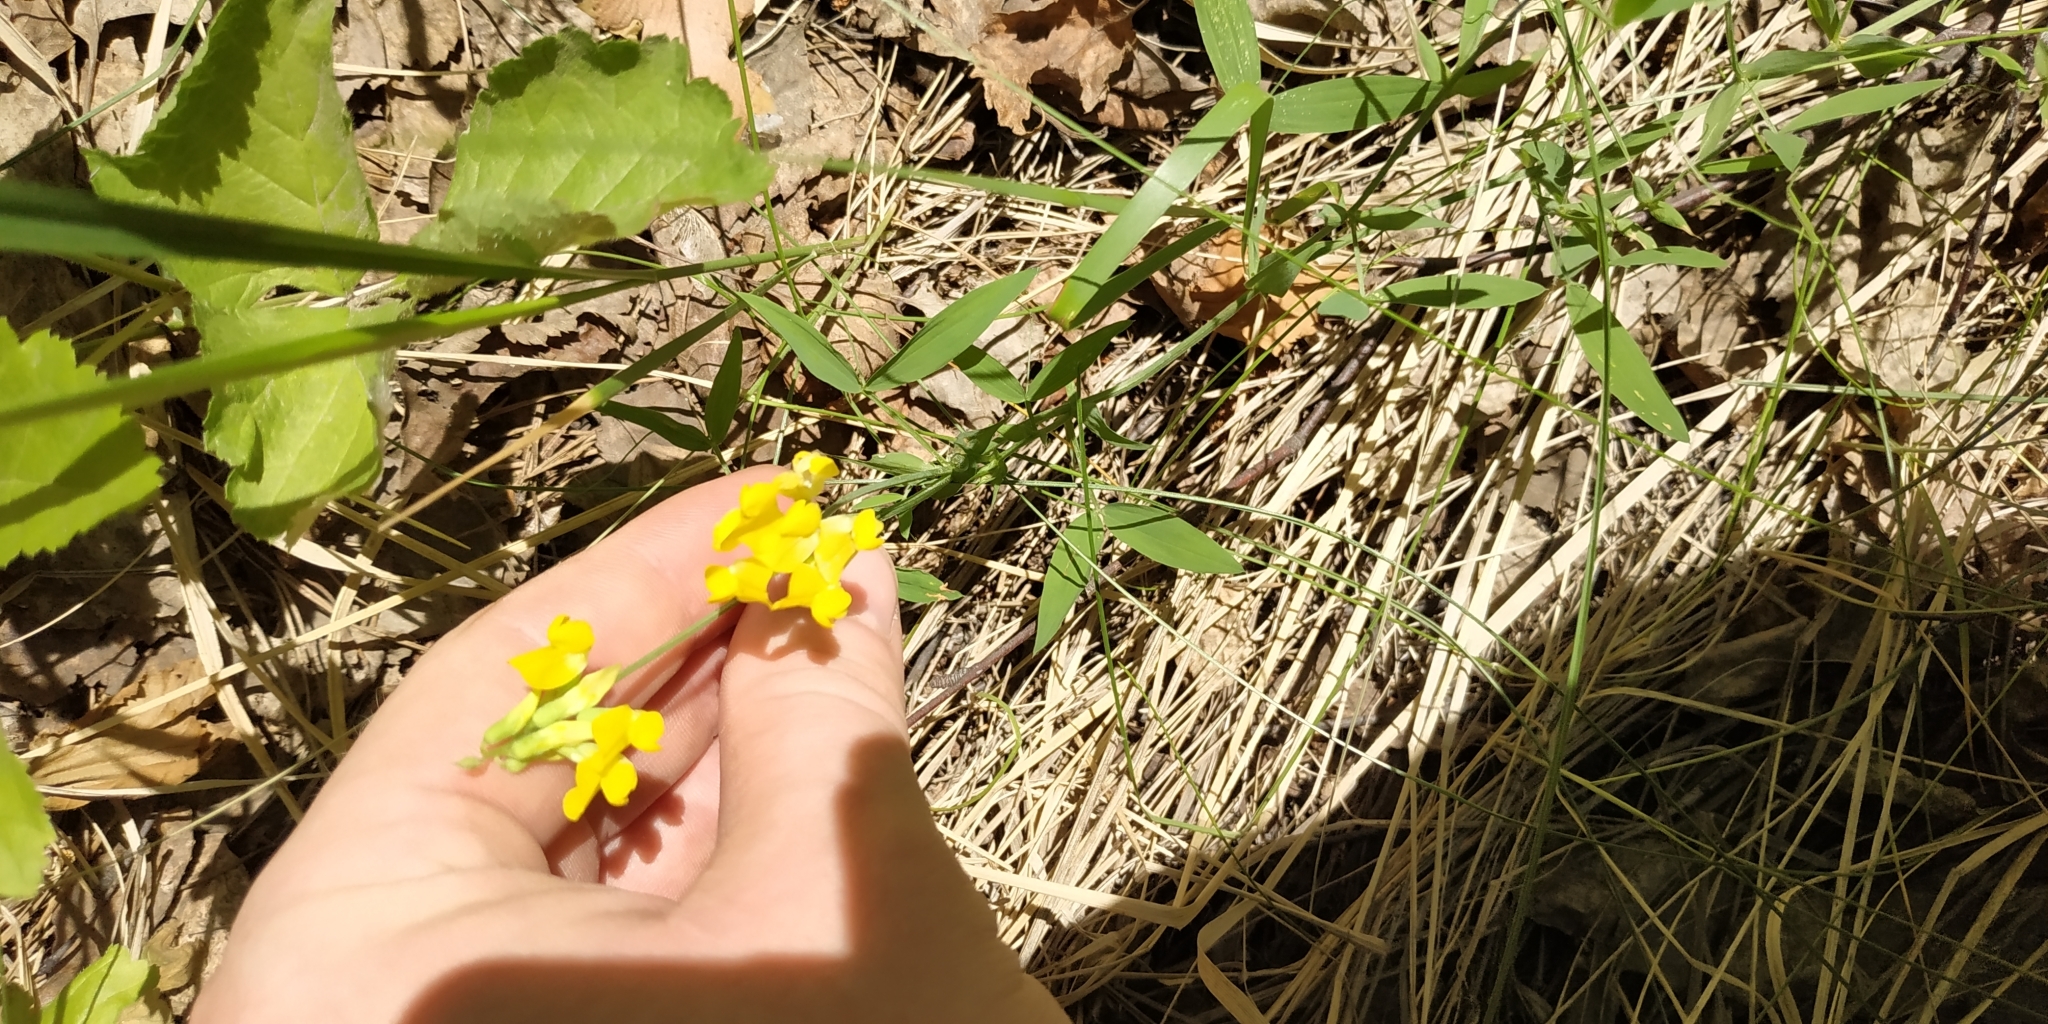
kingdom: Plantae
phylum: Tracheophyta
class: Magnoliopsida
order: Fabales
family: Fabaceae
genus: Lathyrus
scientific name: Lathyrus pratensis
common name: Meadow vetchling
